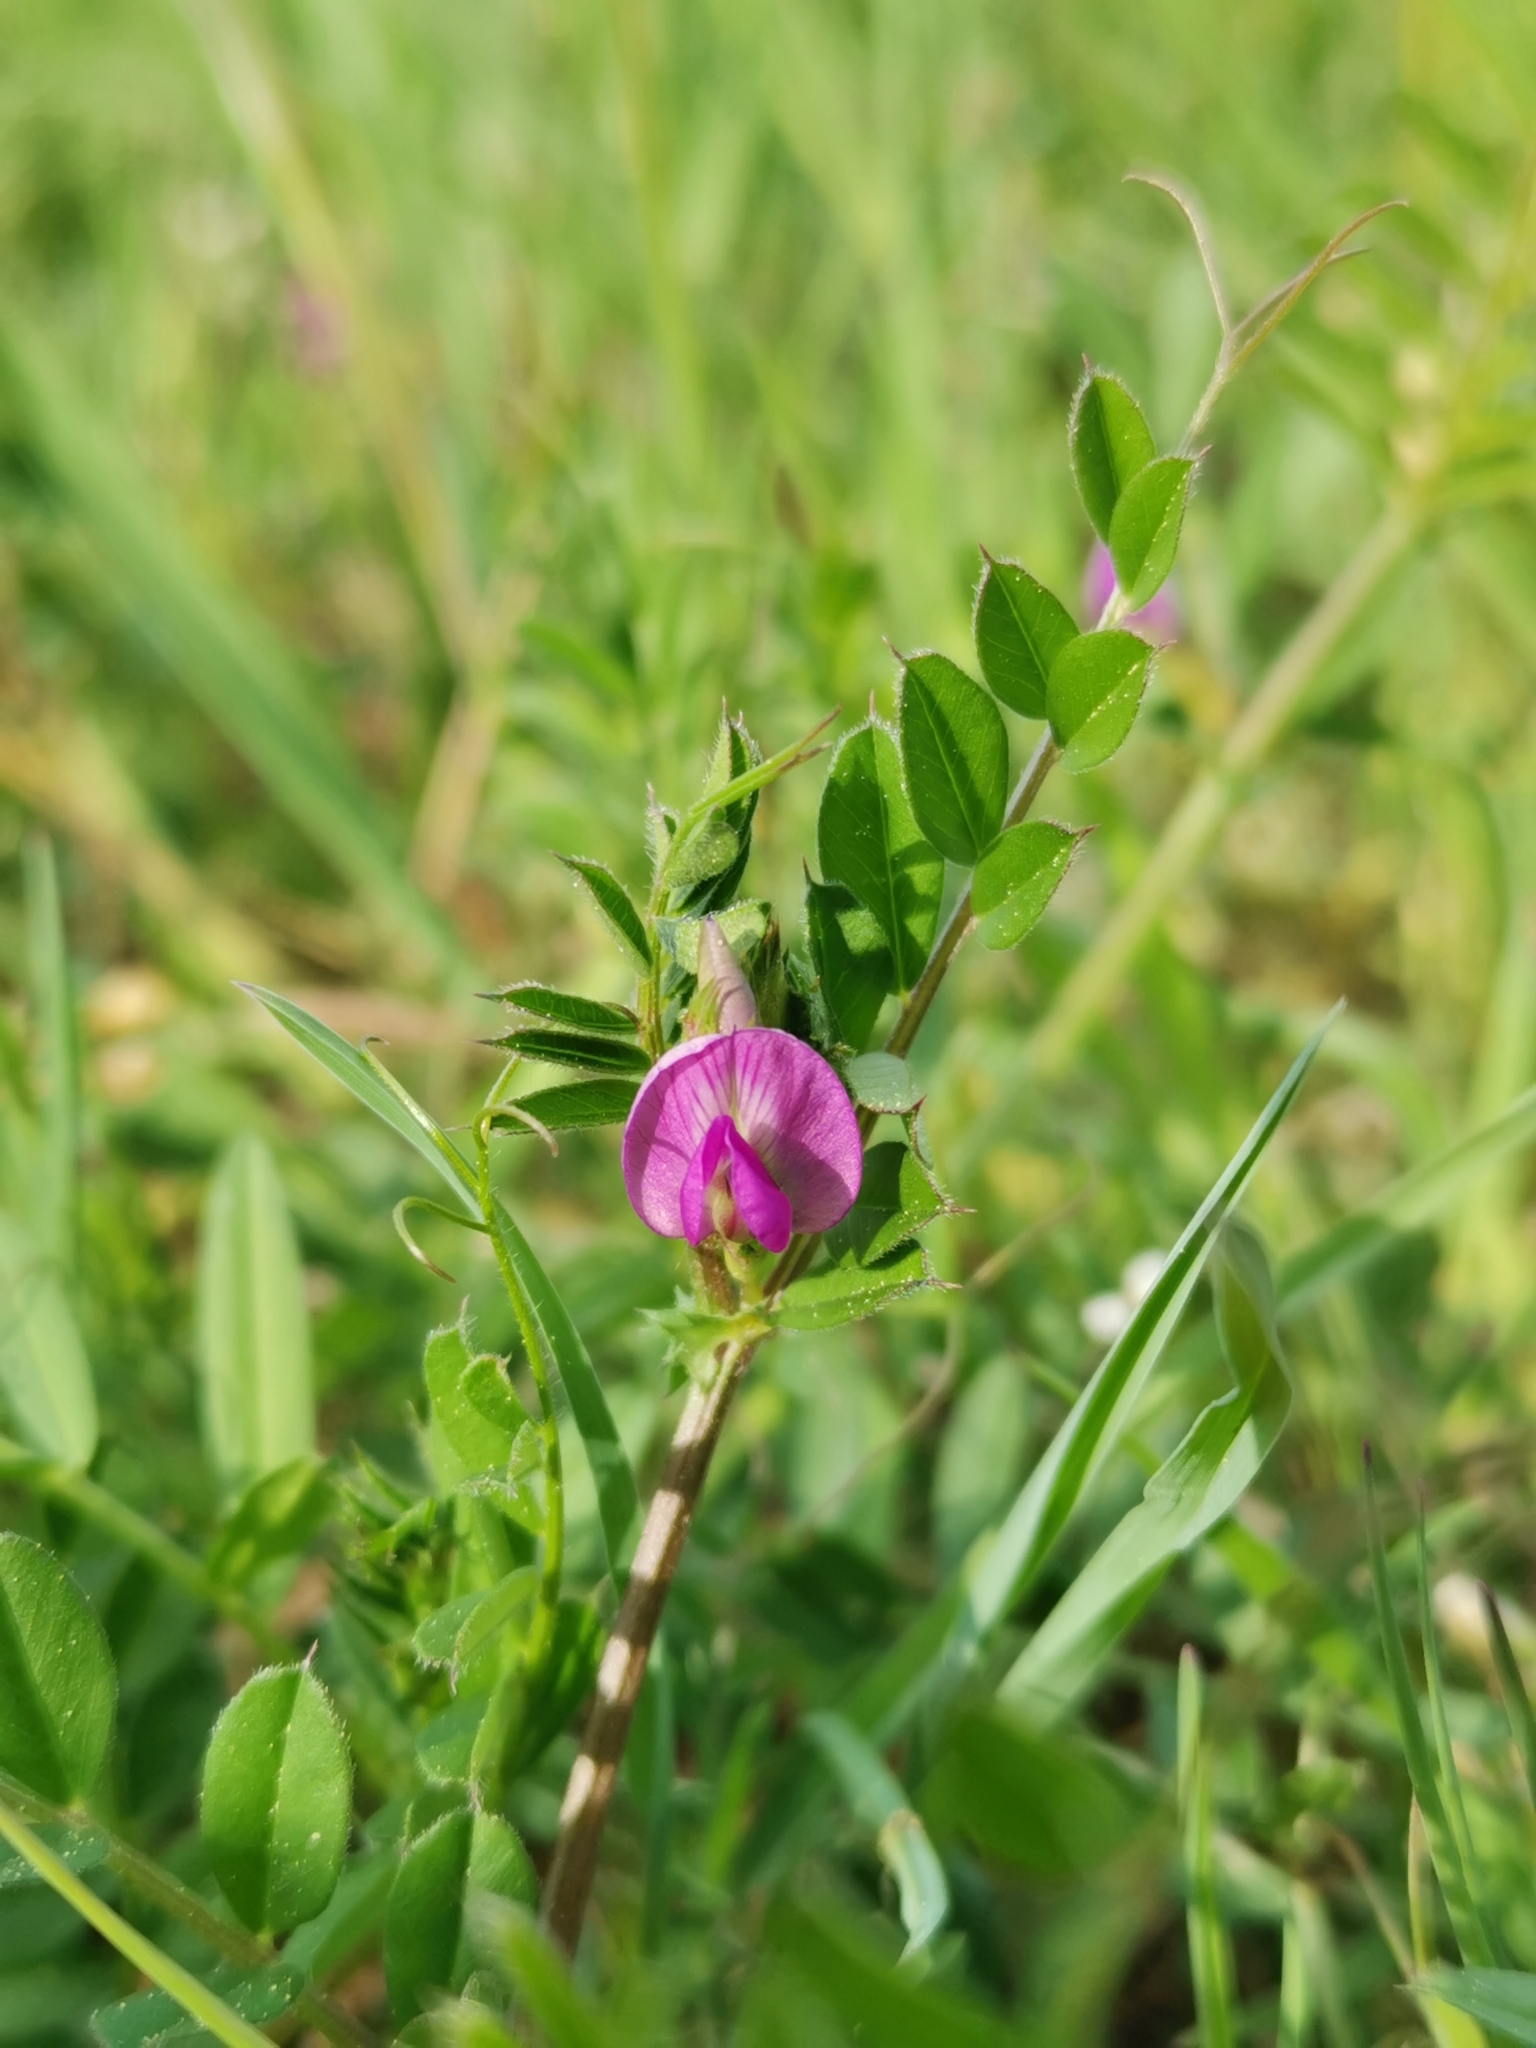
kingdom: Plantae
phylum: Tracheophyta
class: Magnoliopsida
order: Fabales
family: Fabaceae
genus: Vicia
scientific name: Vicia sativa
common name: Garden vetch
